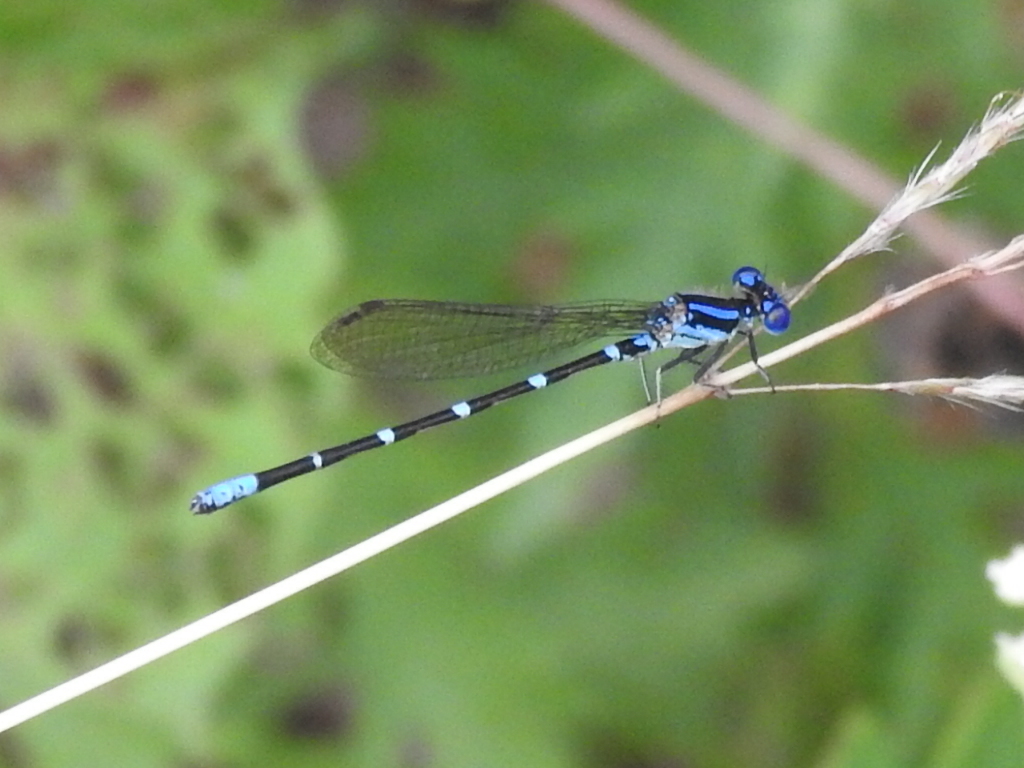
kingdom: Animalia
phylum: Arthropoda
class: Insecta
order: Odonata
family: Coenagrionidae
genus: Argia
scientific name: Argia sedula
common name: Blue-ringed dancer
